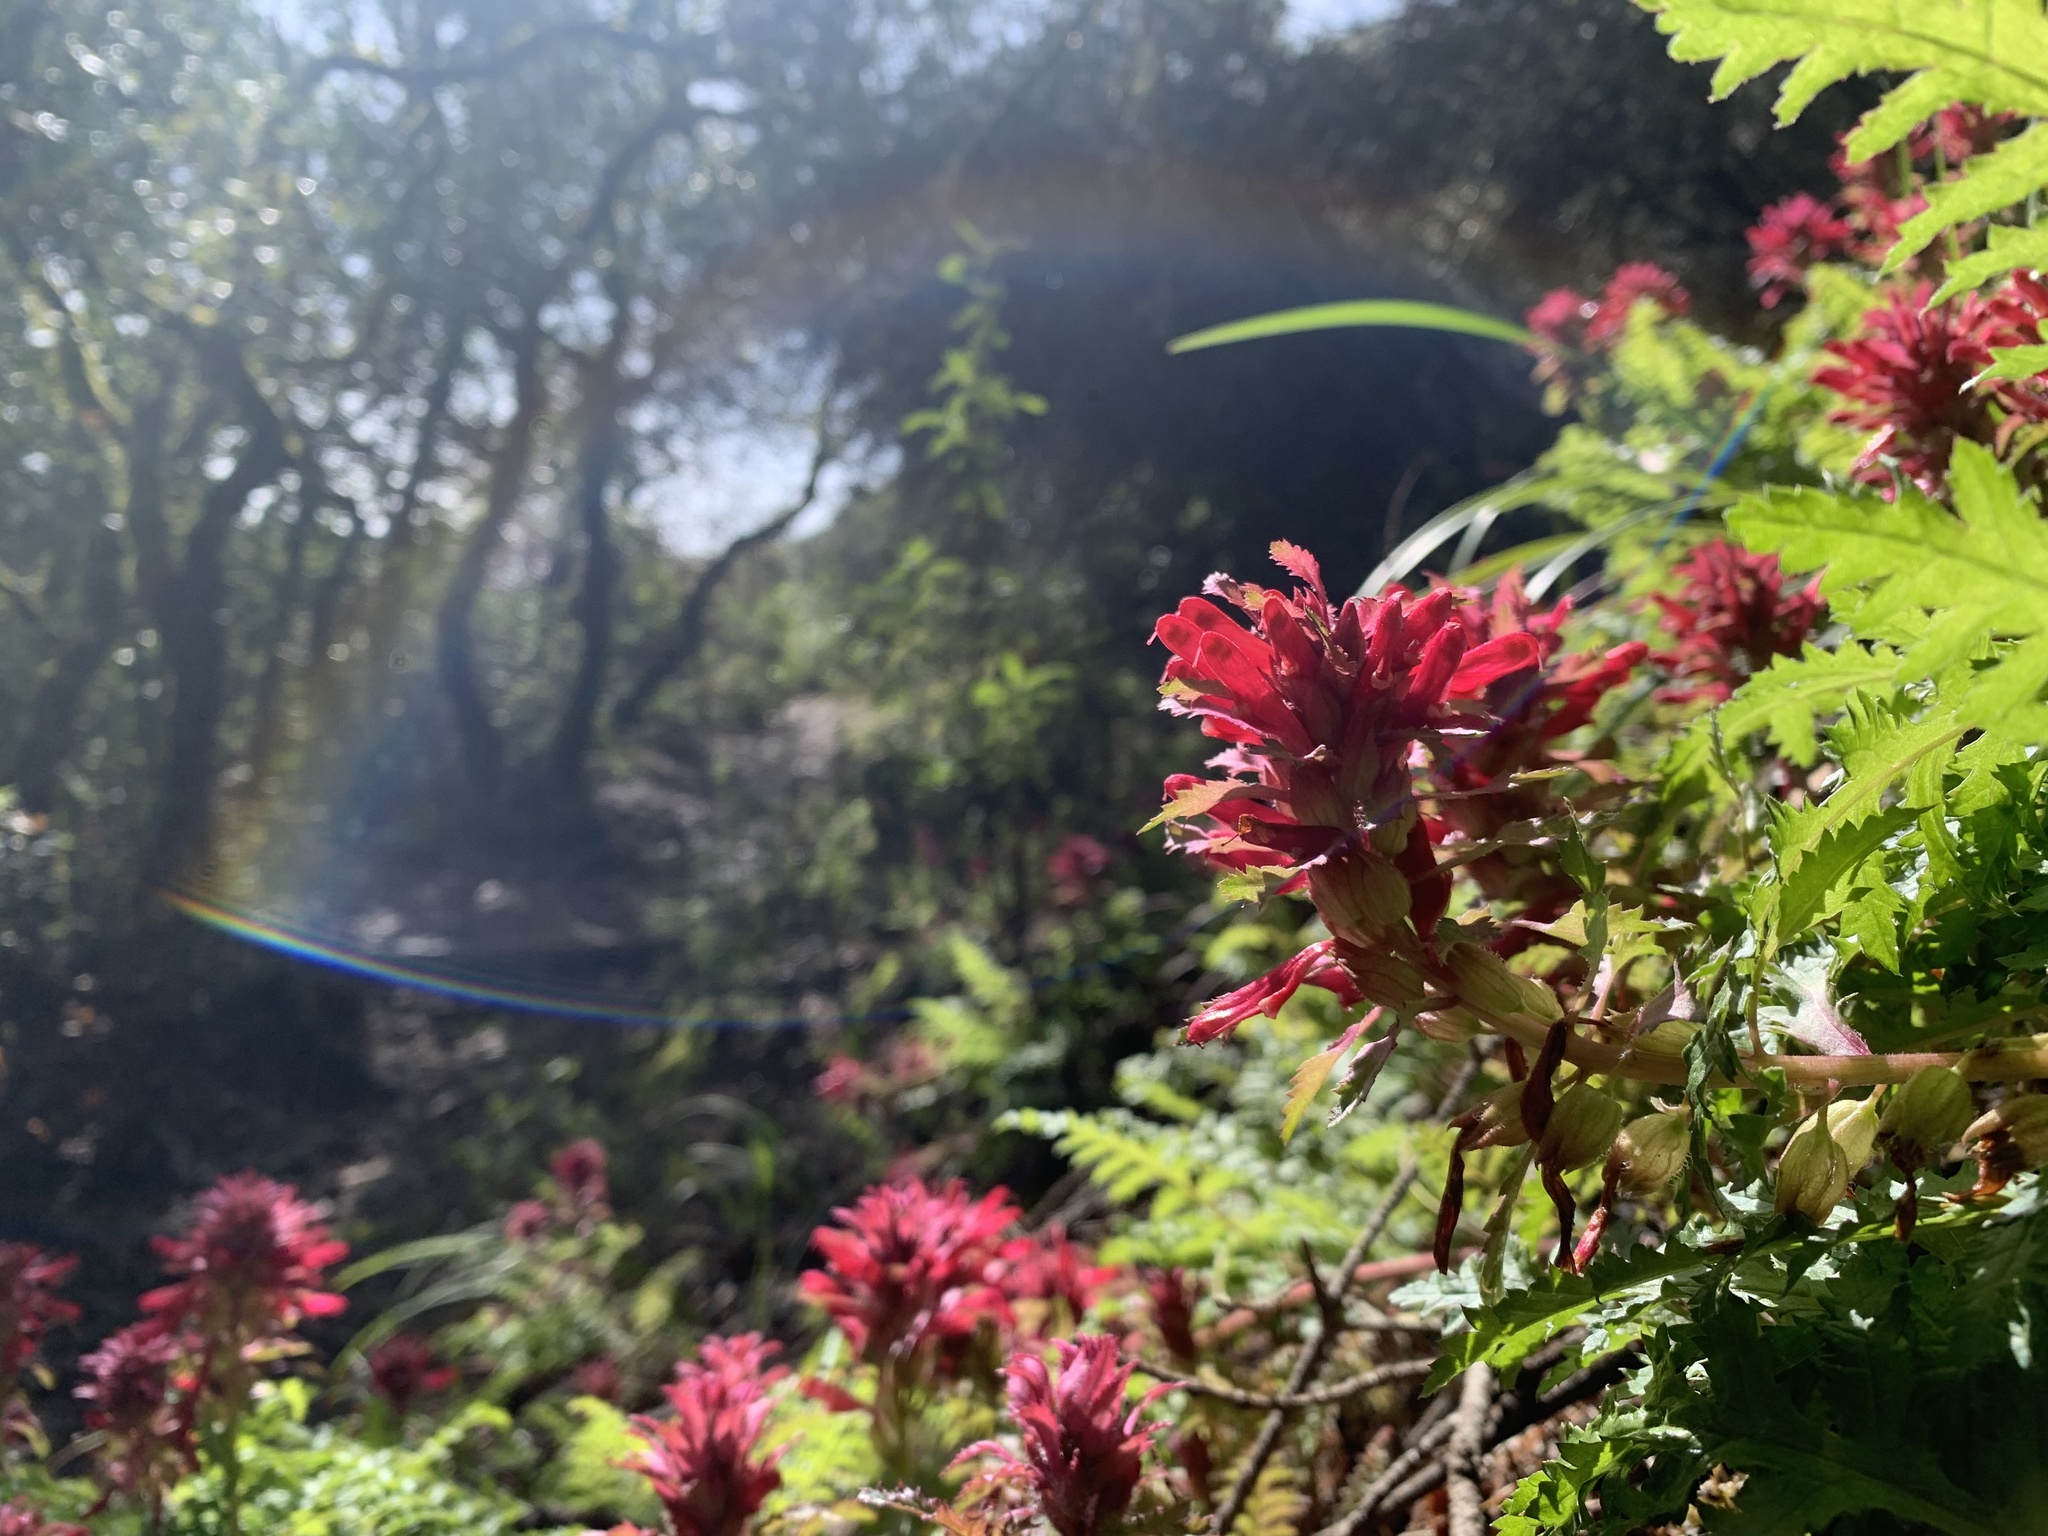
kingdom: Plantae
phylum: Tracheophyta
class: Magnoliopsida
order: Lamiales
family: Orobanchaceae
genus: Pedicularis
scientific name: Pedicularis densiflora
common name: Indian warrior
